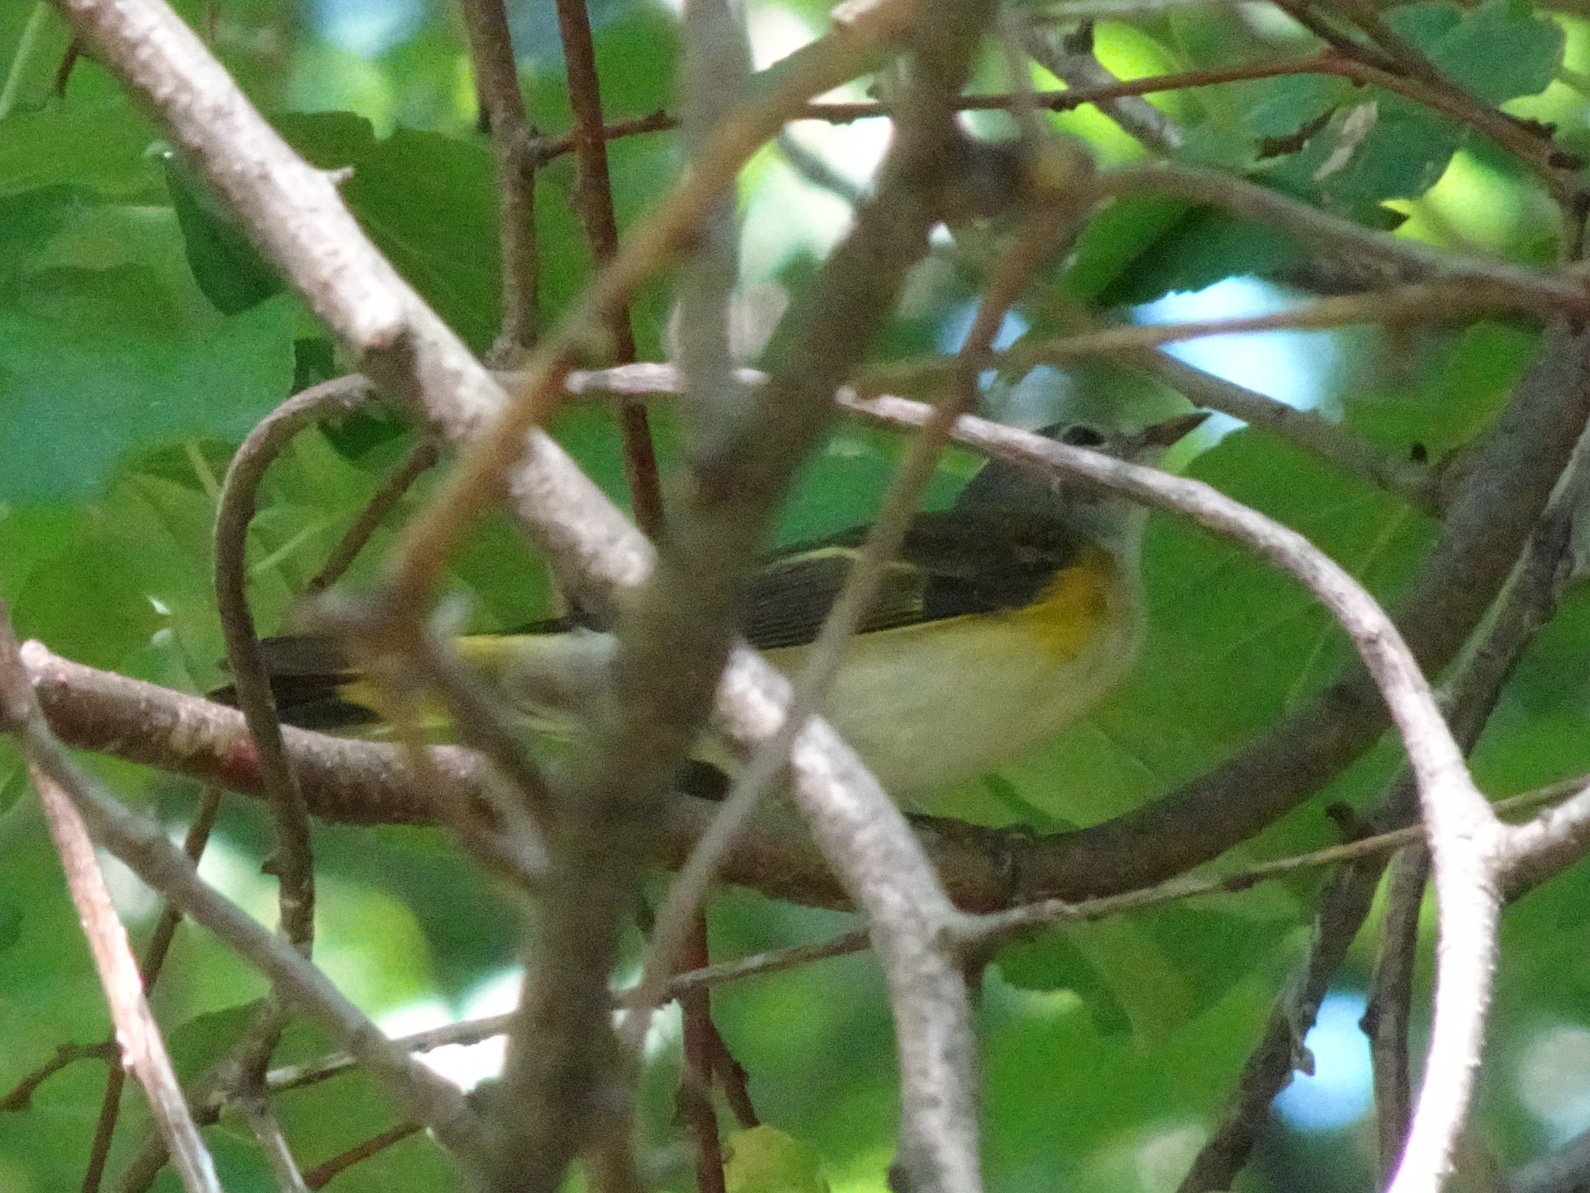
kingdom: Animalia
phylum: Chordata
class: Aves
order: Passeriformes
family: Parulidae
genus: Setophaga
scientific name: Setophaga ruticilla
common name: American redstart
